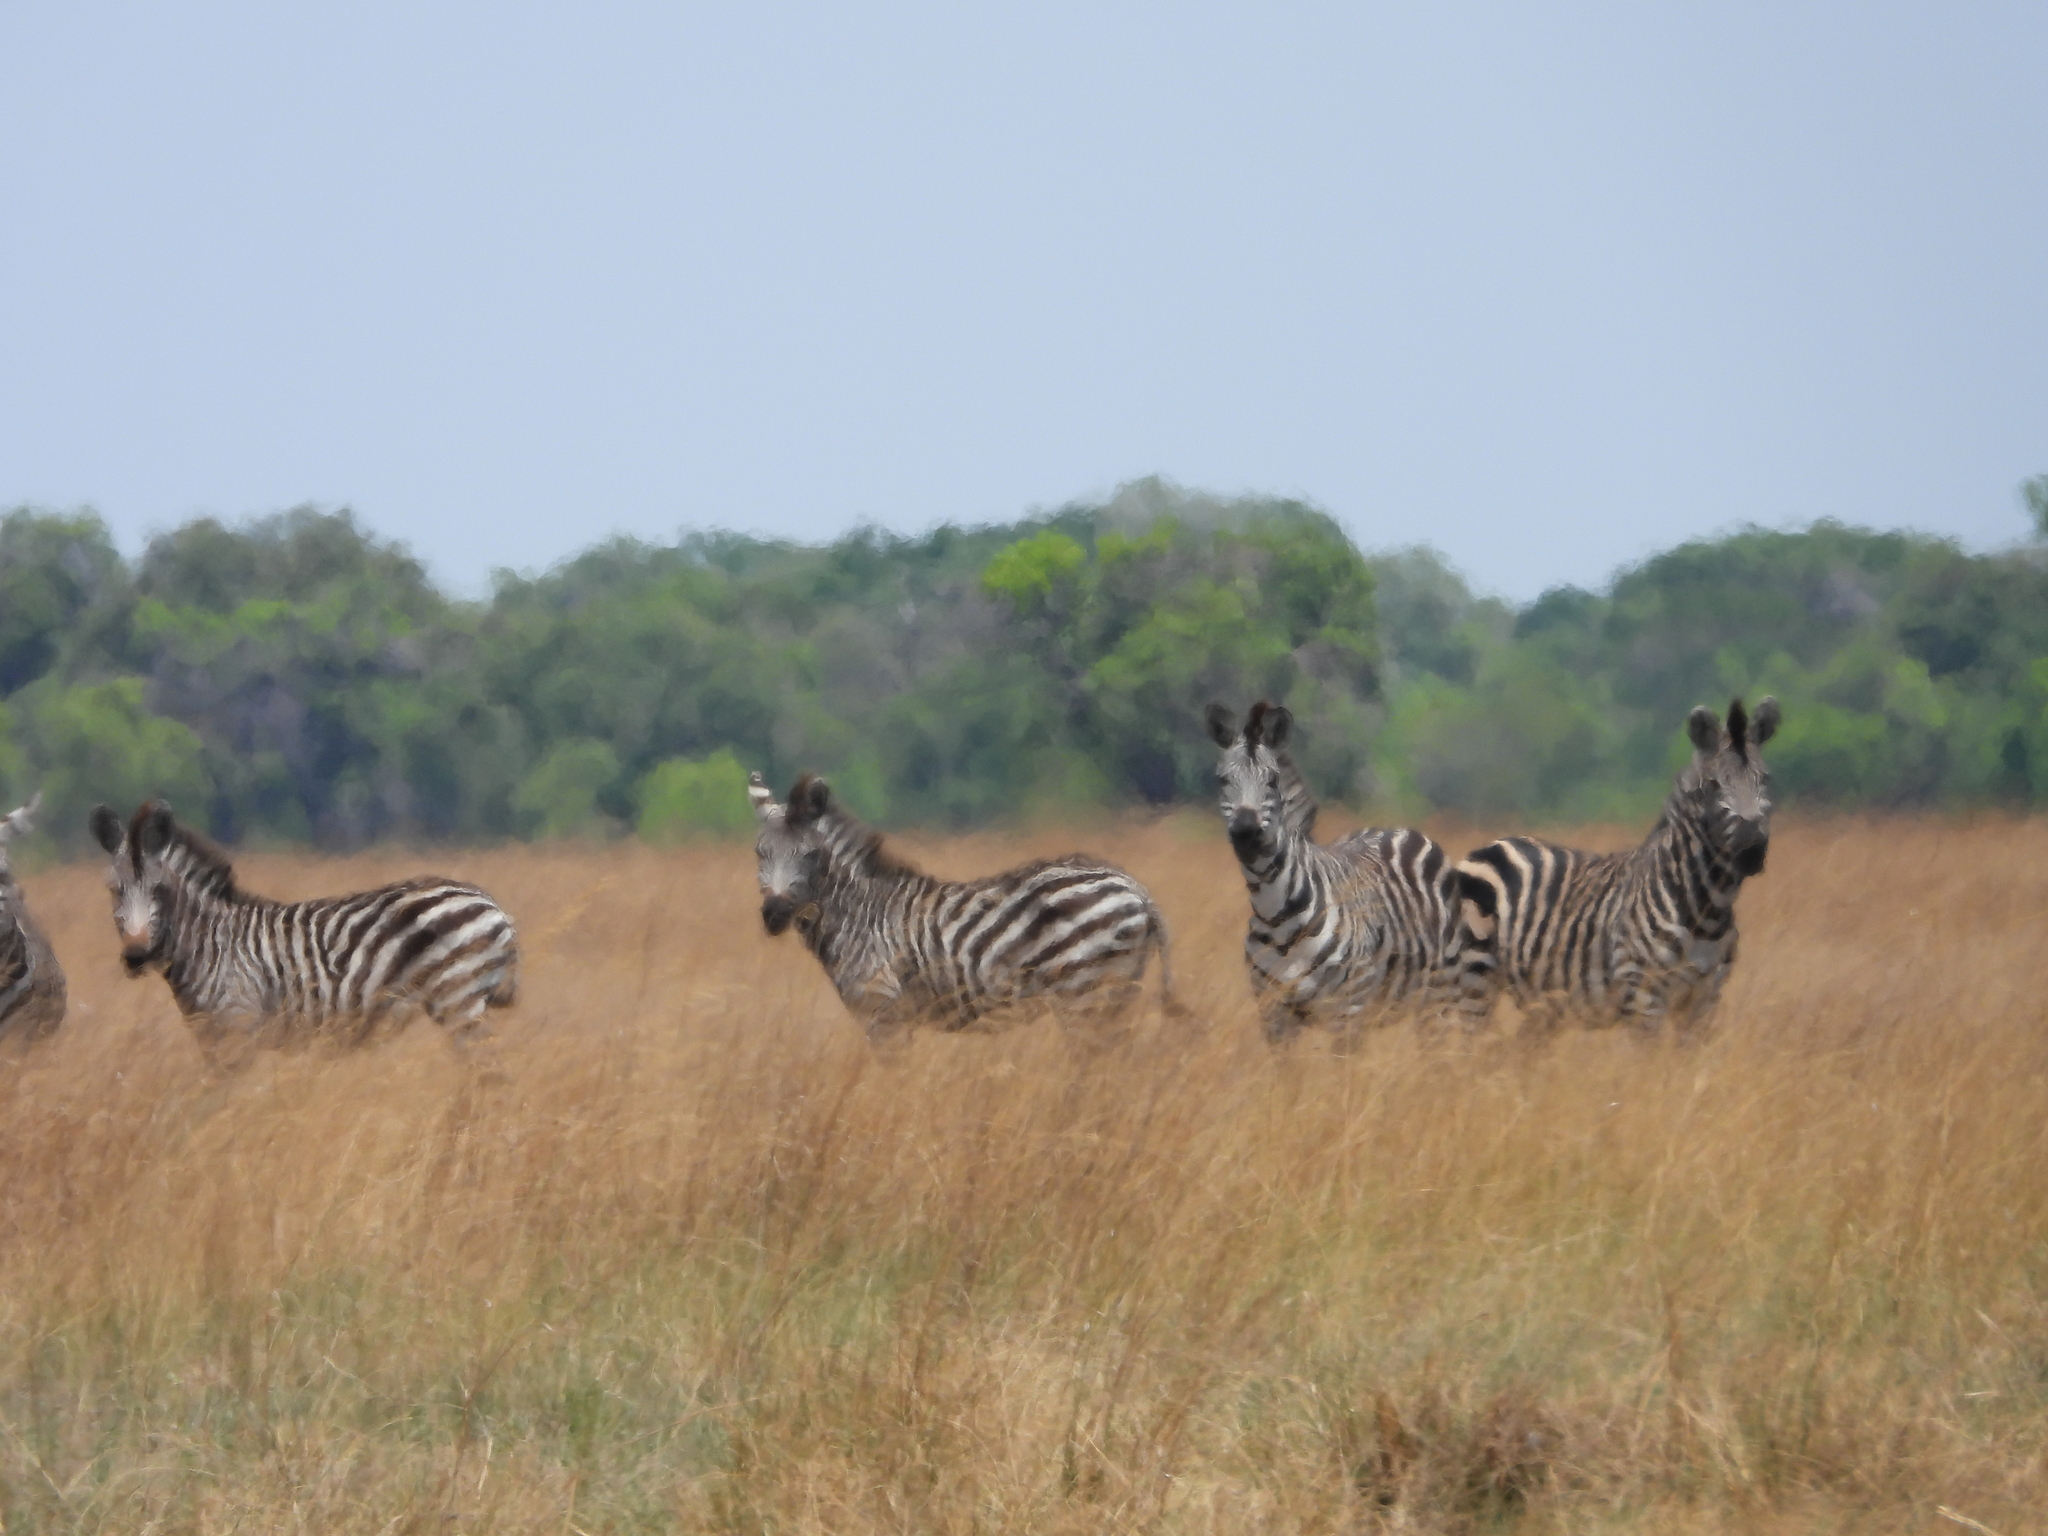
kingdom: Animalia
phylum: Chordata
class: Mammalia
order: Perissodactyla
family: Equidae
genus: Equus
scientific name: Equus quagga
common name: Plains zebra
